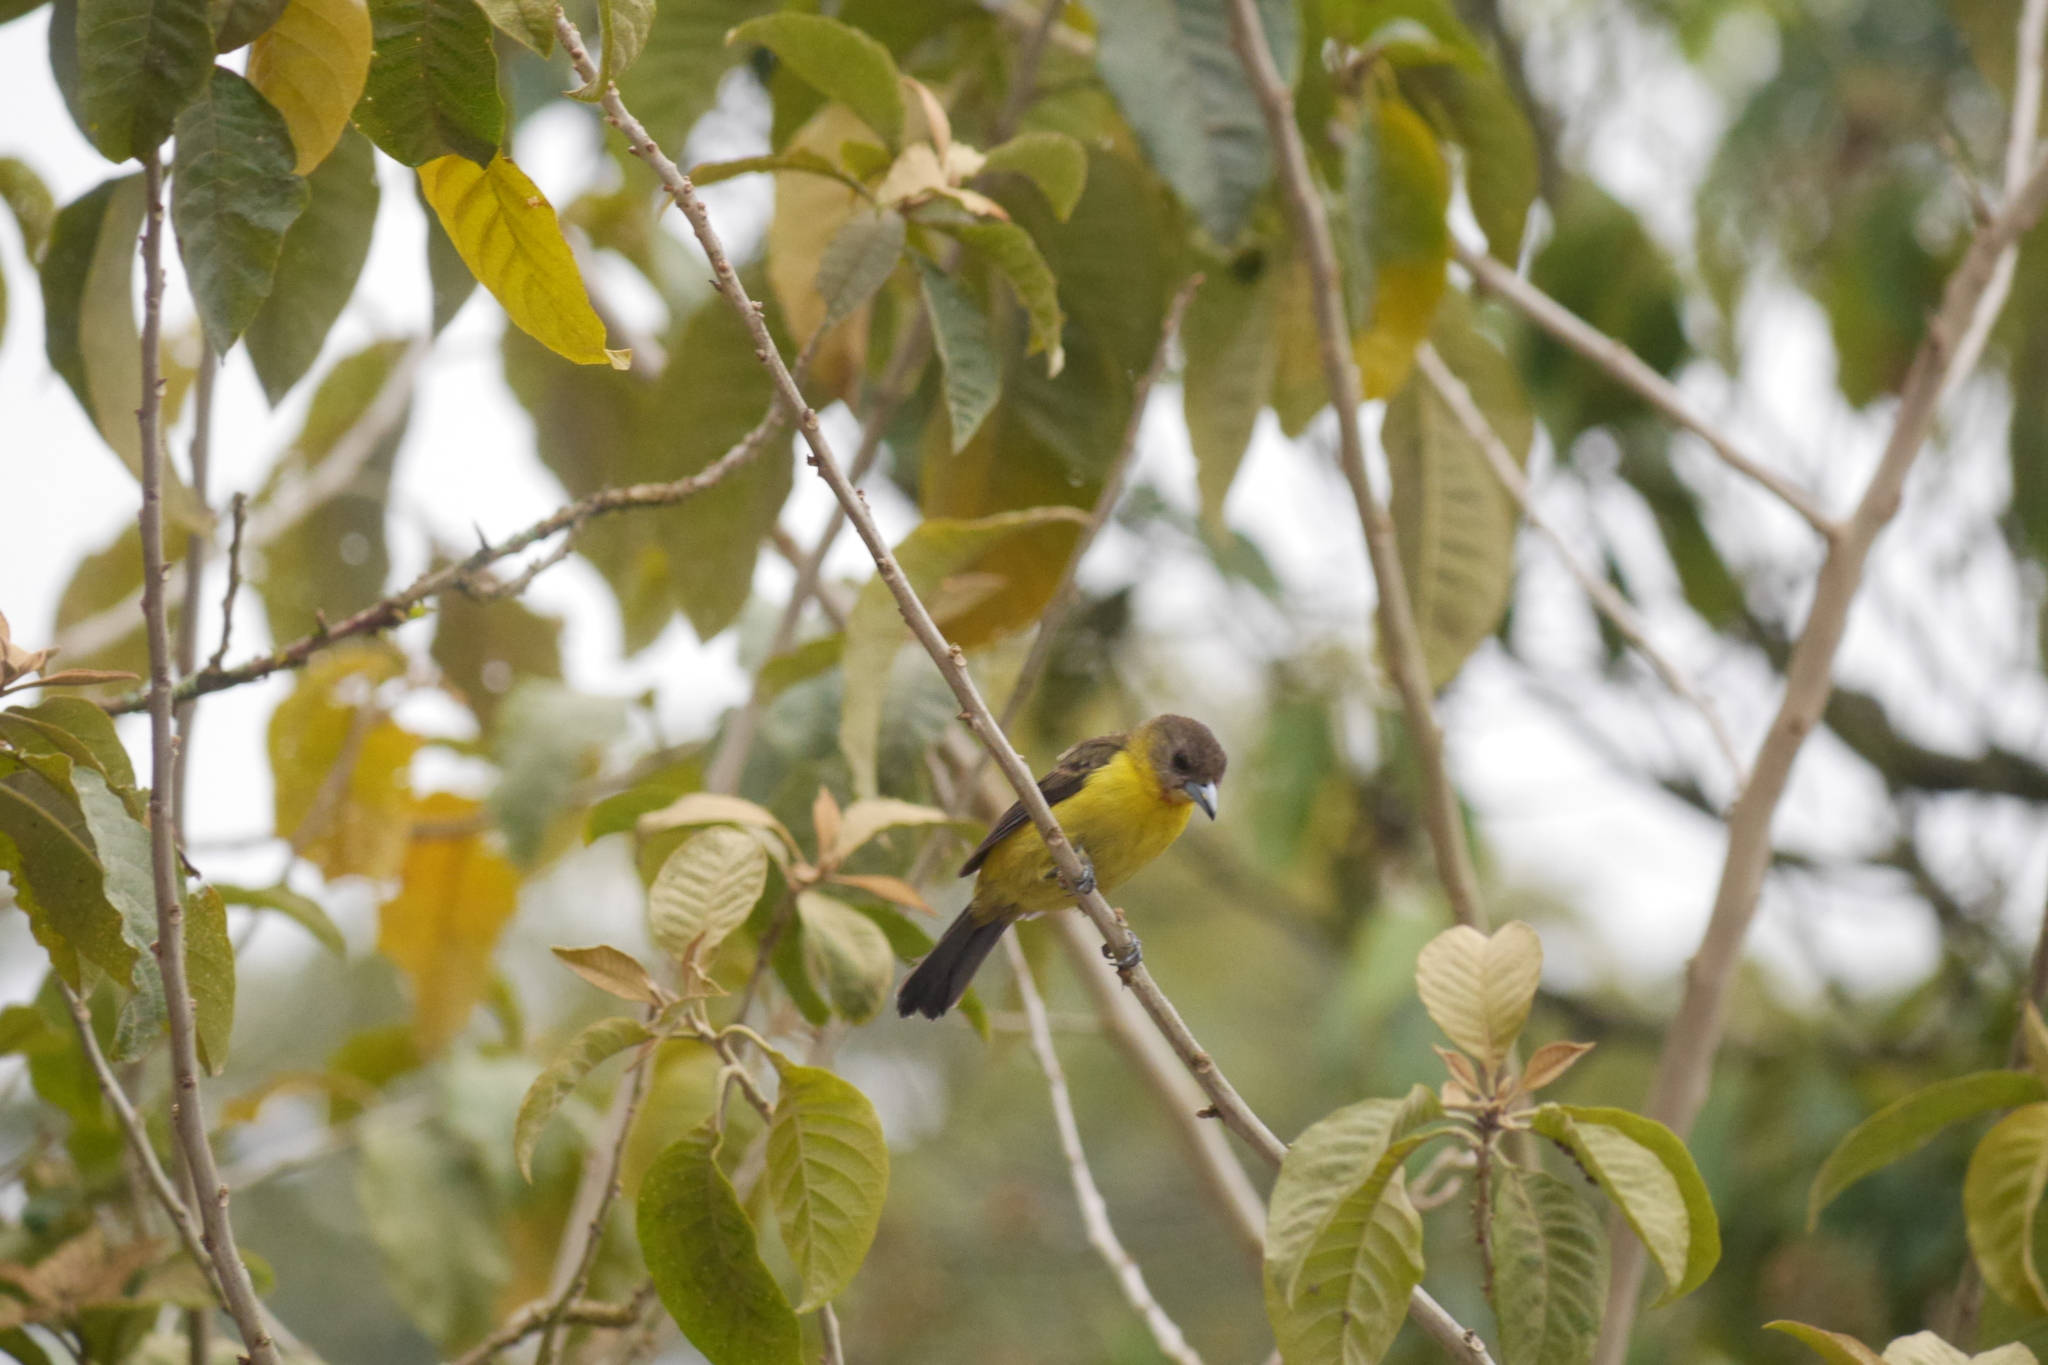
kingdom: Animalia
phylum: Chordata
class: Aves
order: Passeriformes
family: Thraupidae
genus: Ramphocelus
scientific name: Ramphocelus icteronotus
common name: Lemon-rumped tanager
